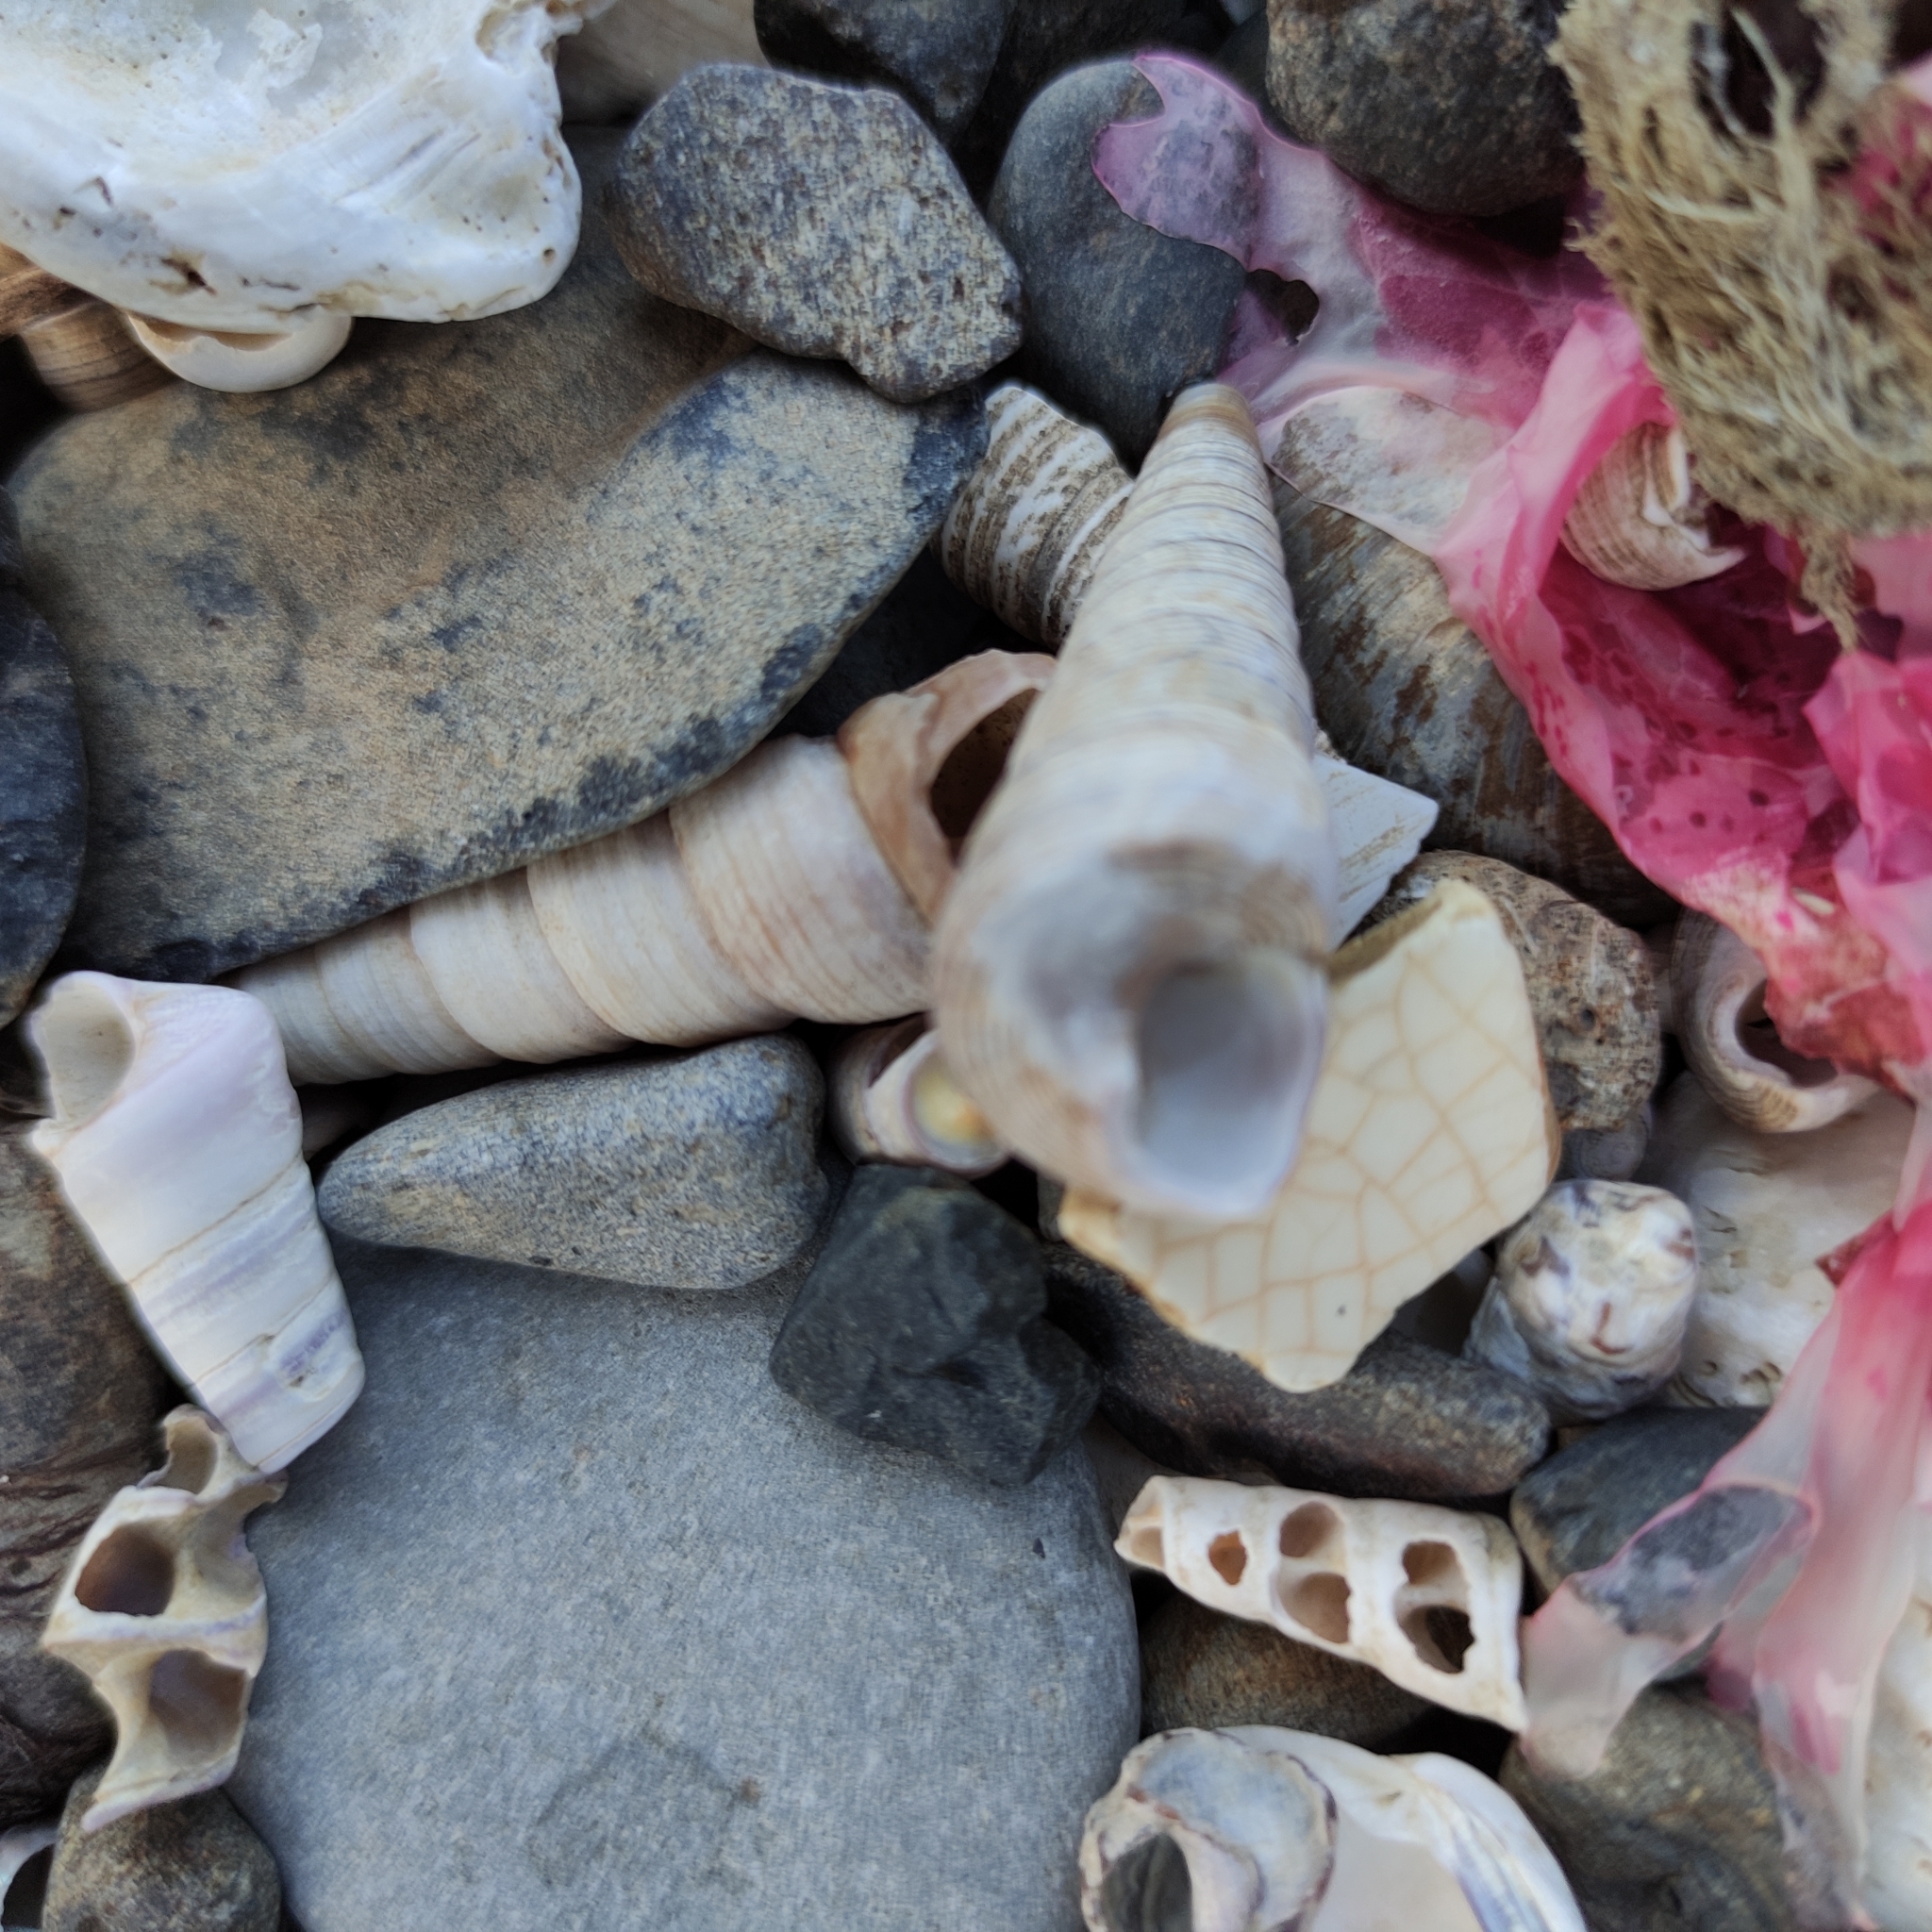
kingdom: Animalia
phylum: Mollusca
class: Gastropoda
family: Turritellidae
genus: Maoricolpus
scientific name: Maoricolpus roseus
